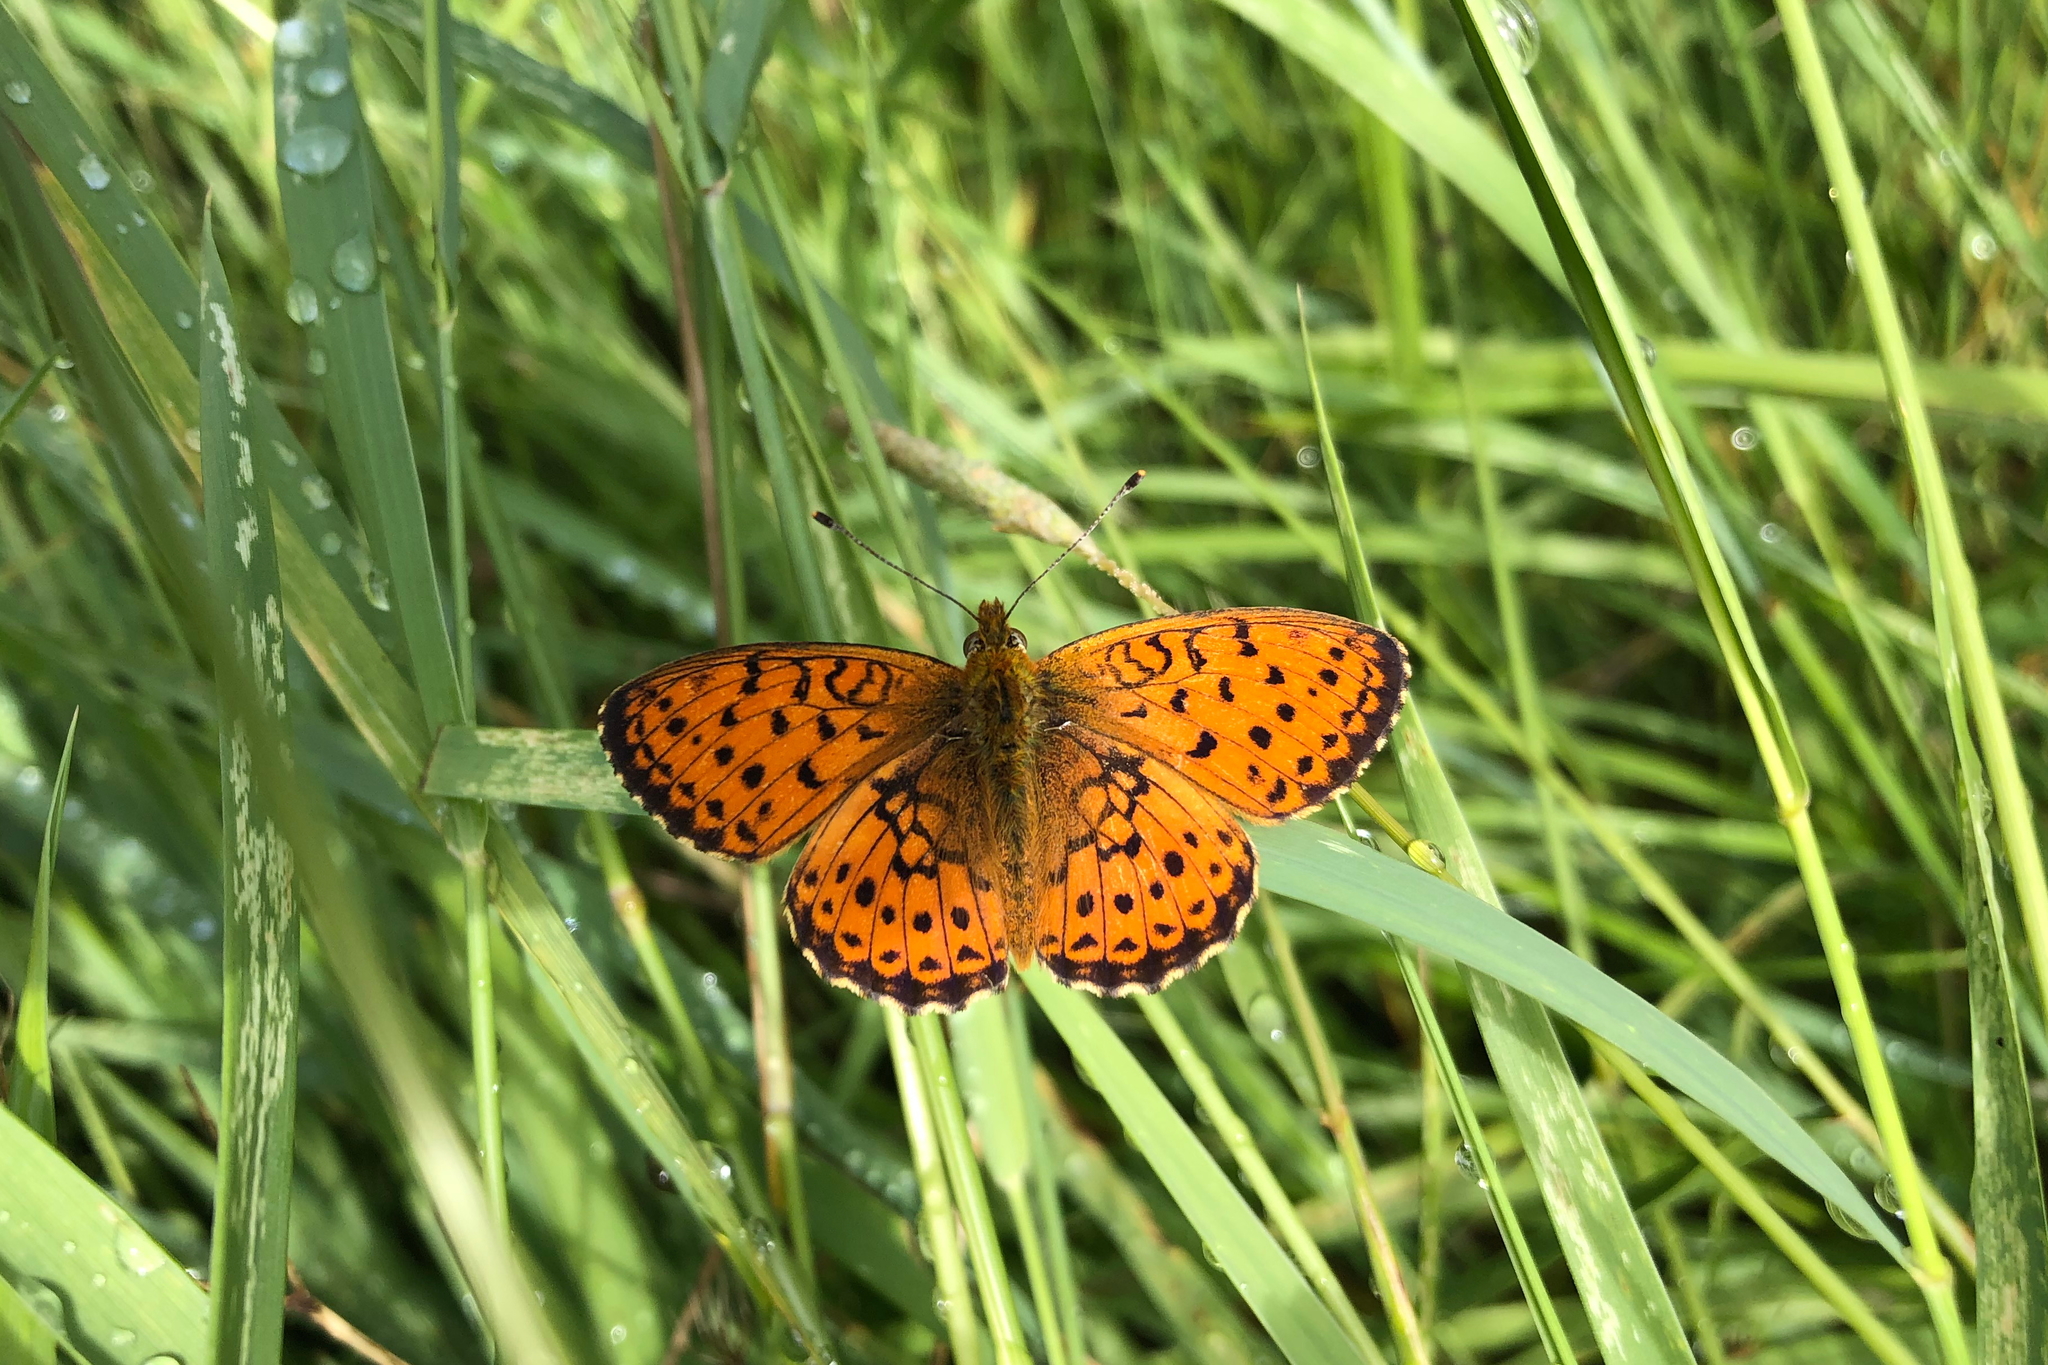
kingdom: Animalia
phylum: Arthropoda
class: Insecta
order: Lepidoptera
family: Nymphalidae
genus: Brenthis
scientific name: Brenthis ino
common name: Lesser marbled fritillary
